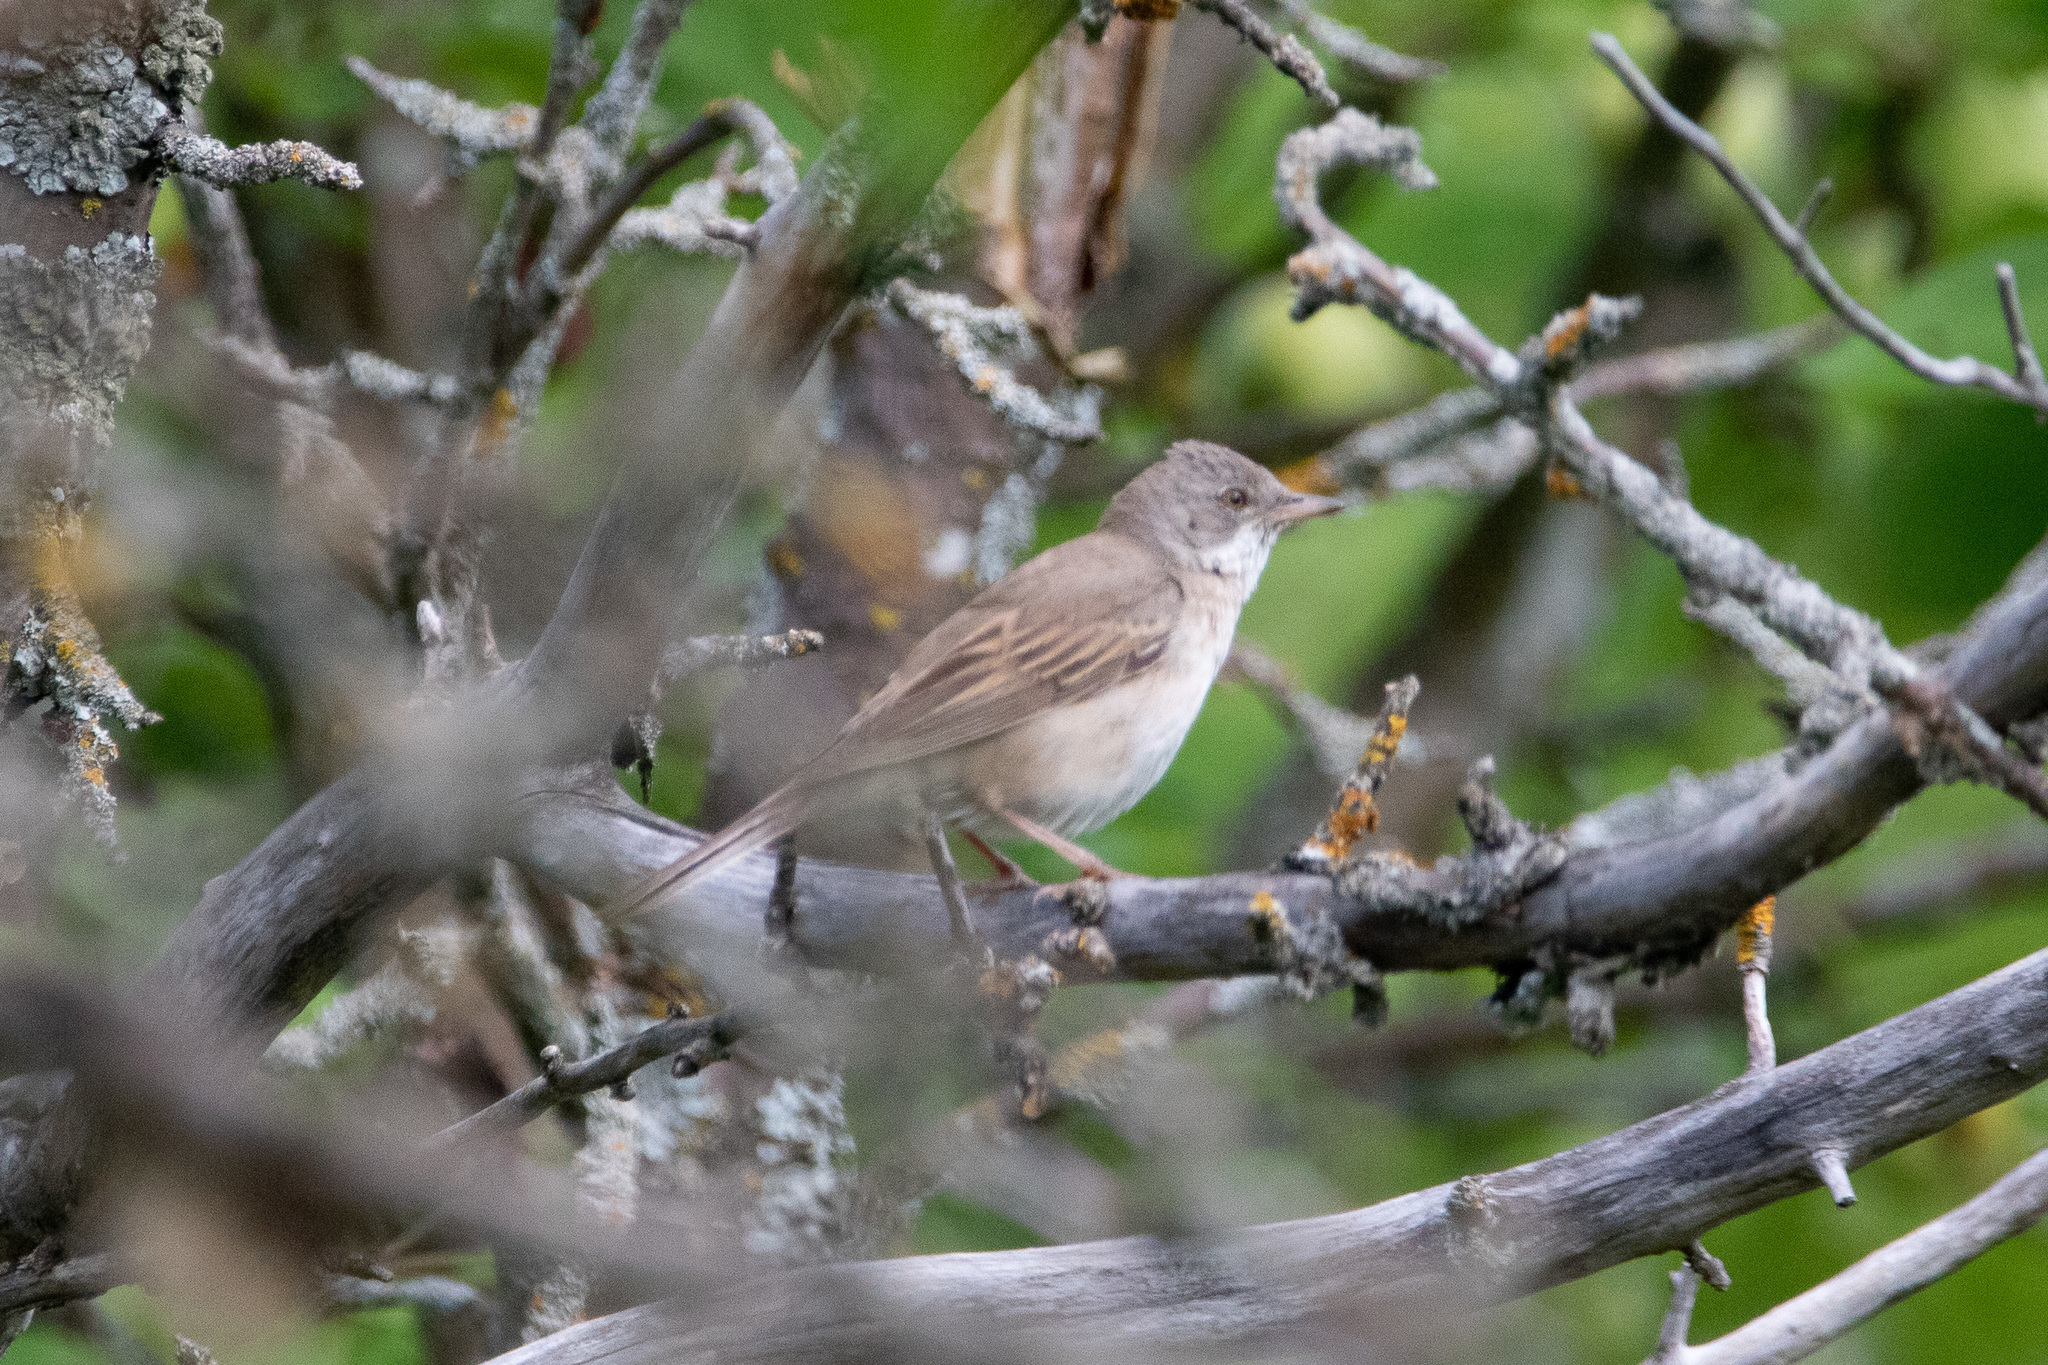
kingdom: Animalia
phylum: Chordata
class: Aves
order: Passeriformes
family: Sylviidae
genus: Sylvia
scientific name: Sylvia communis
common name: Common whitethroat
